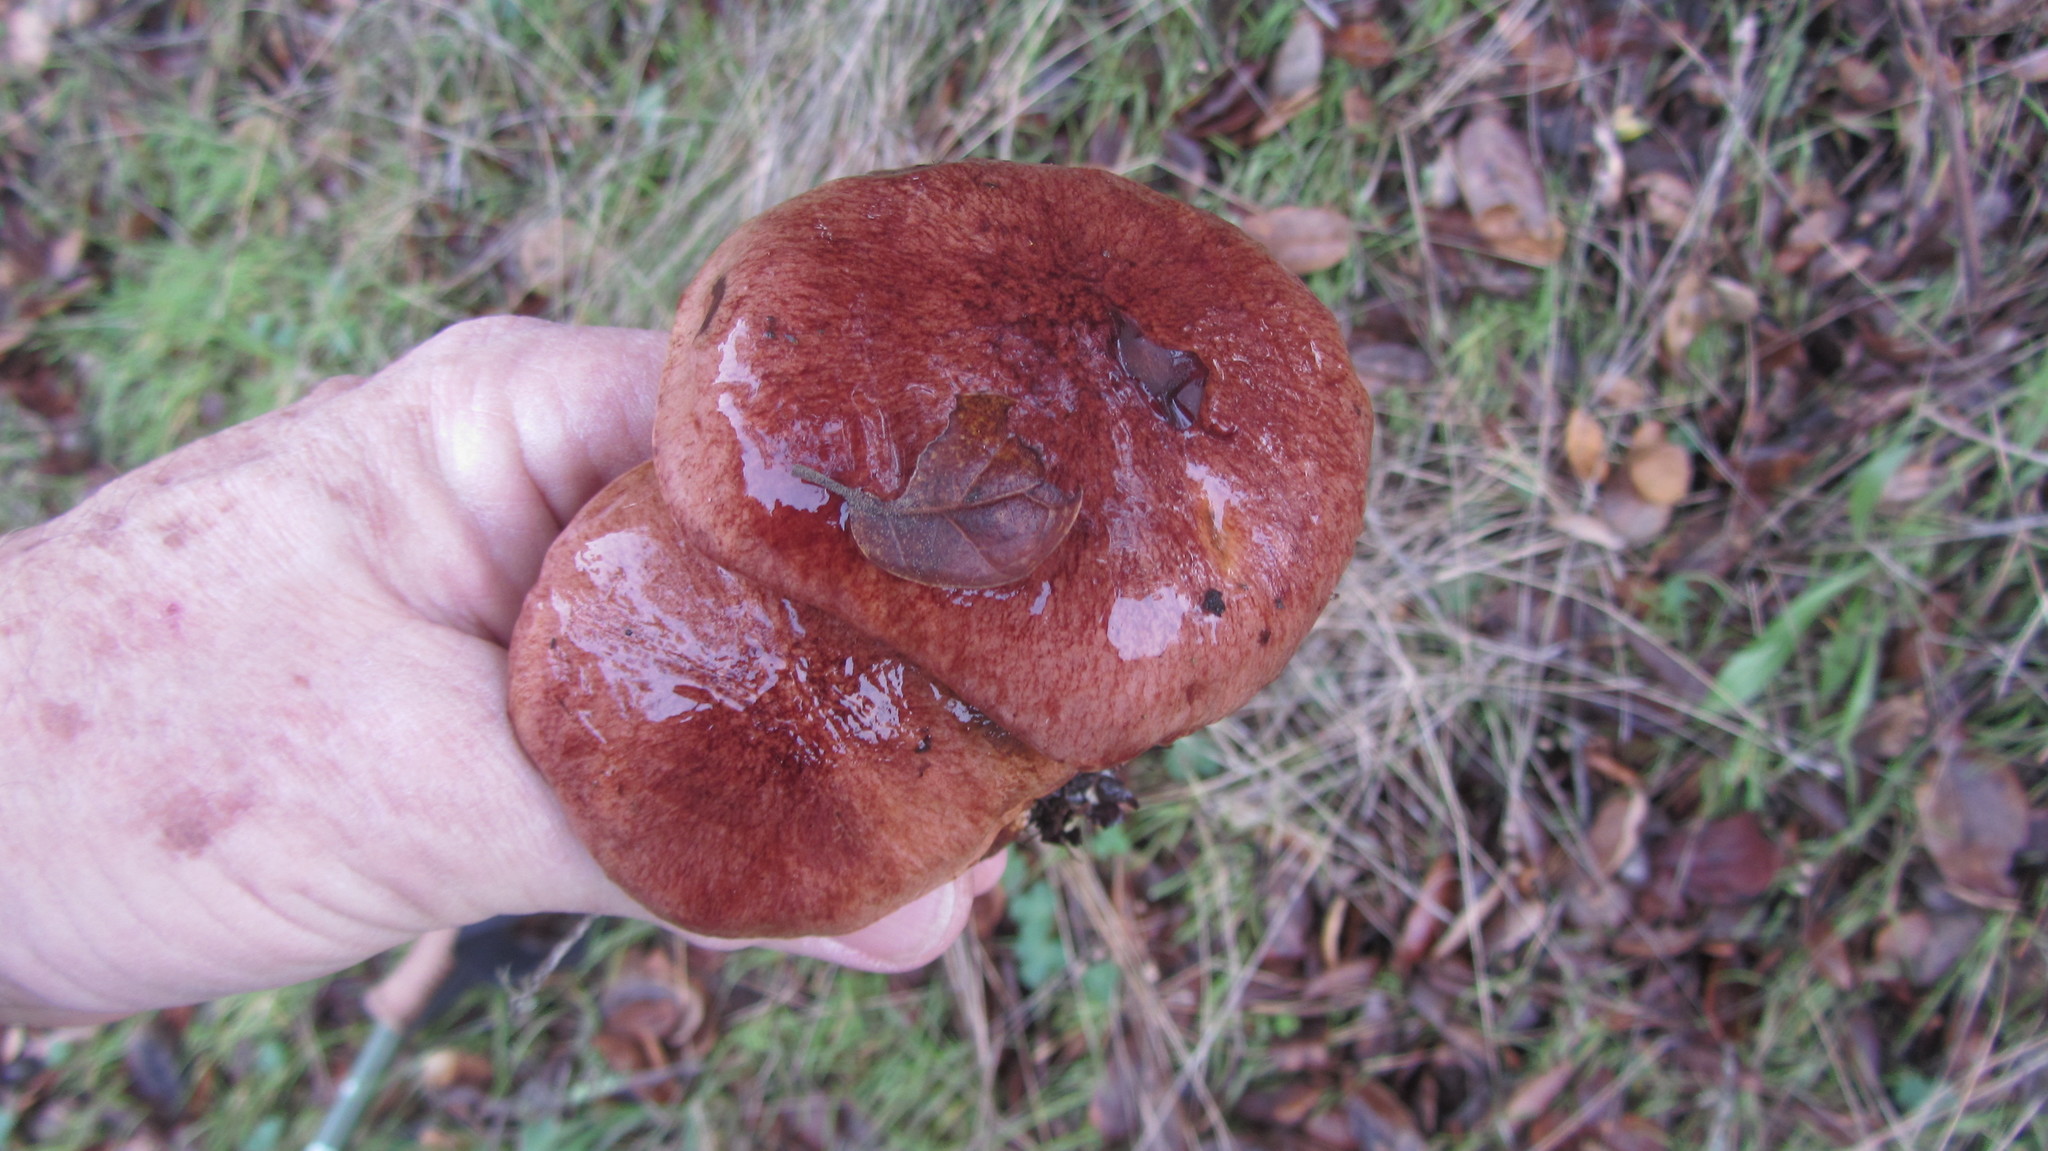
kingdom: Fungi
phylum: Basidiomycota
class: Agaricomycetes
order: Boletales
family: Boletaceae
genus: Aureoboletus
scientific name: Aureoboletus flaviporus
